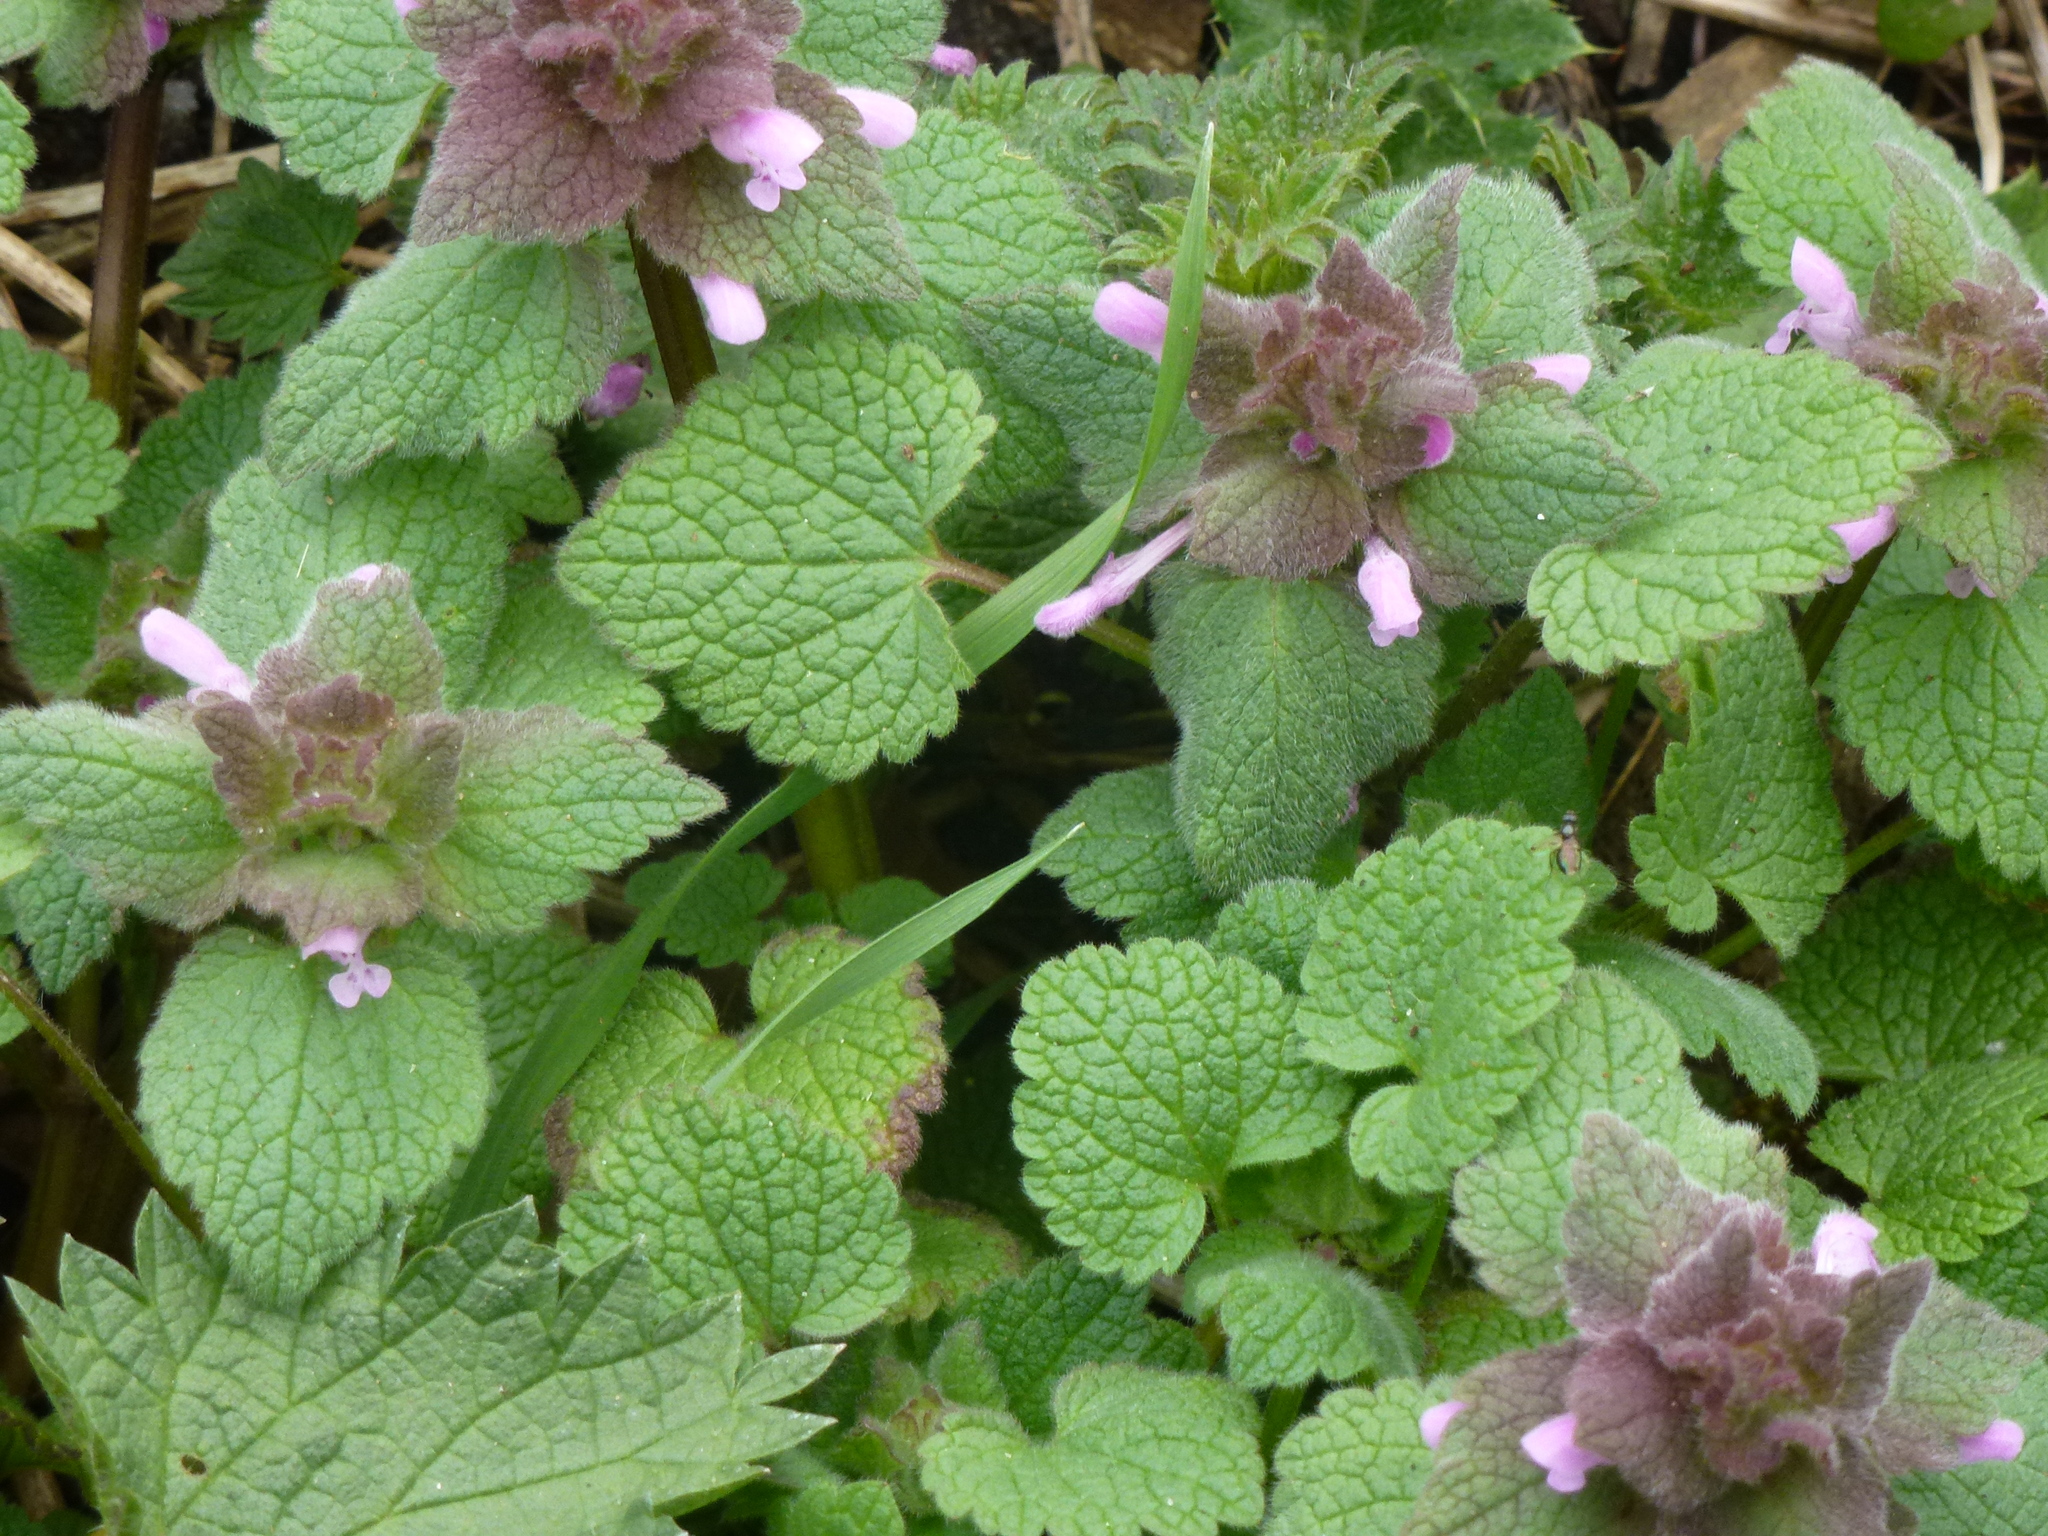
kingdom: Plantae
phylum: Tracheophyta
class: Magnoliopsida
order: Lamiales
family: Lamiaceae
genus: Lamium
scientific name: Lamium purpureum
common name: Red dead-nettle
